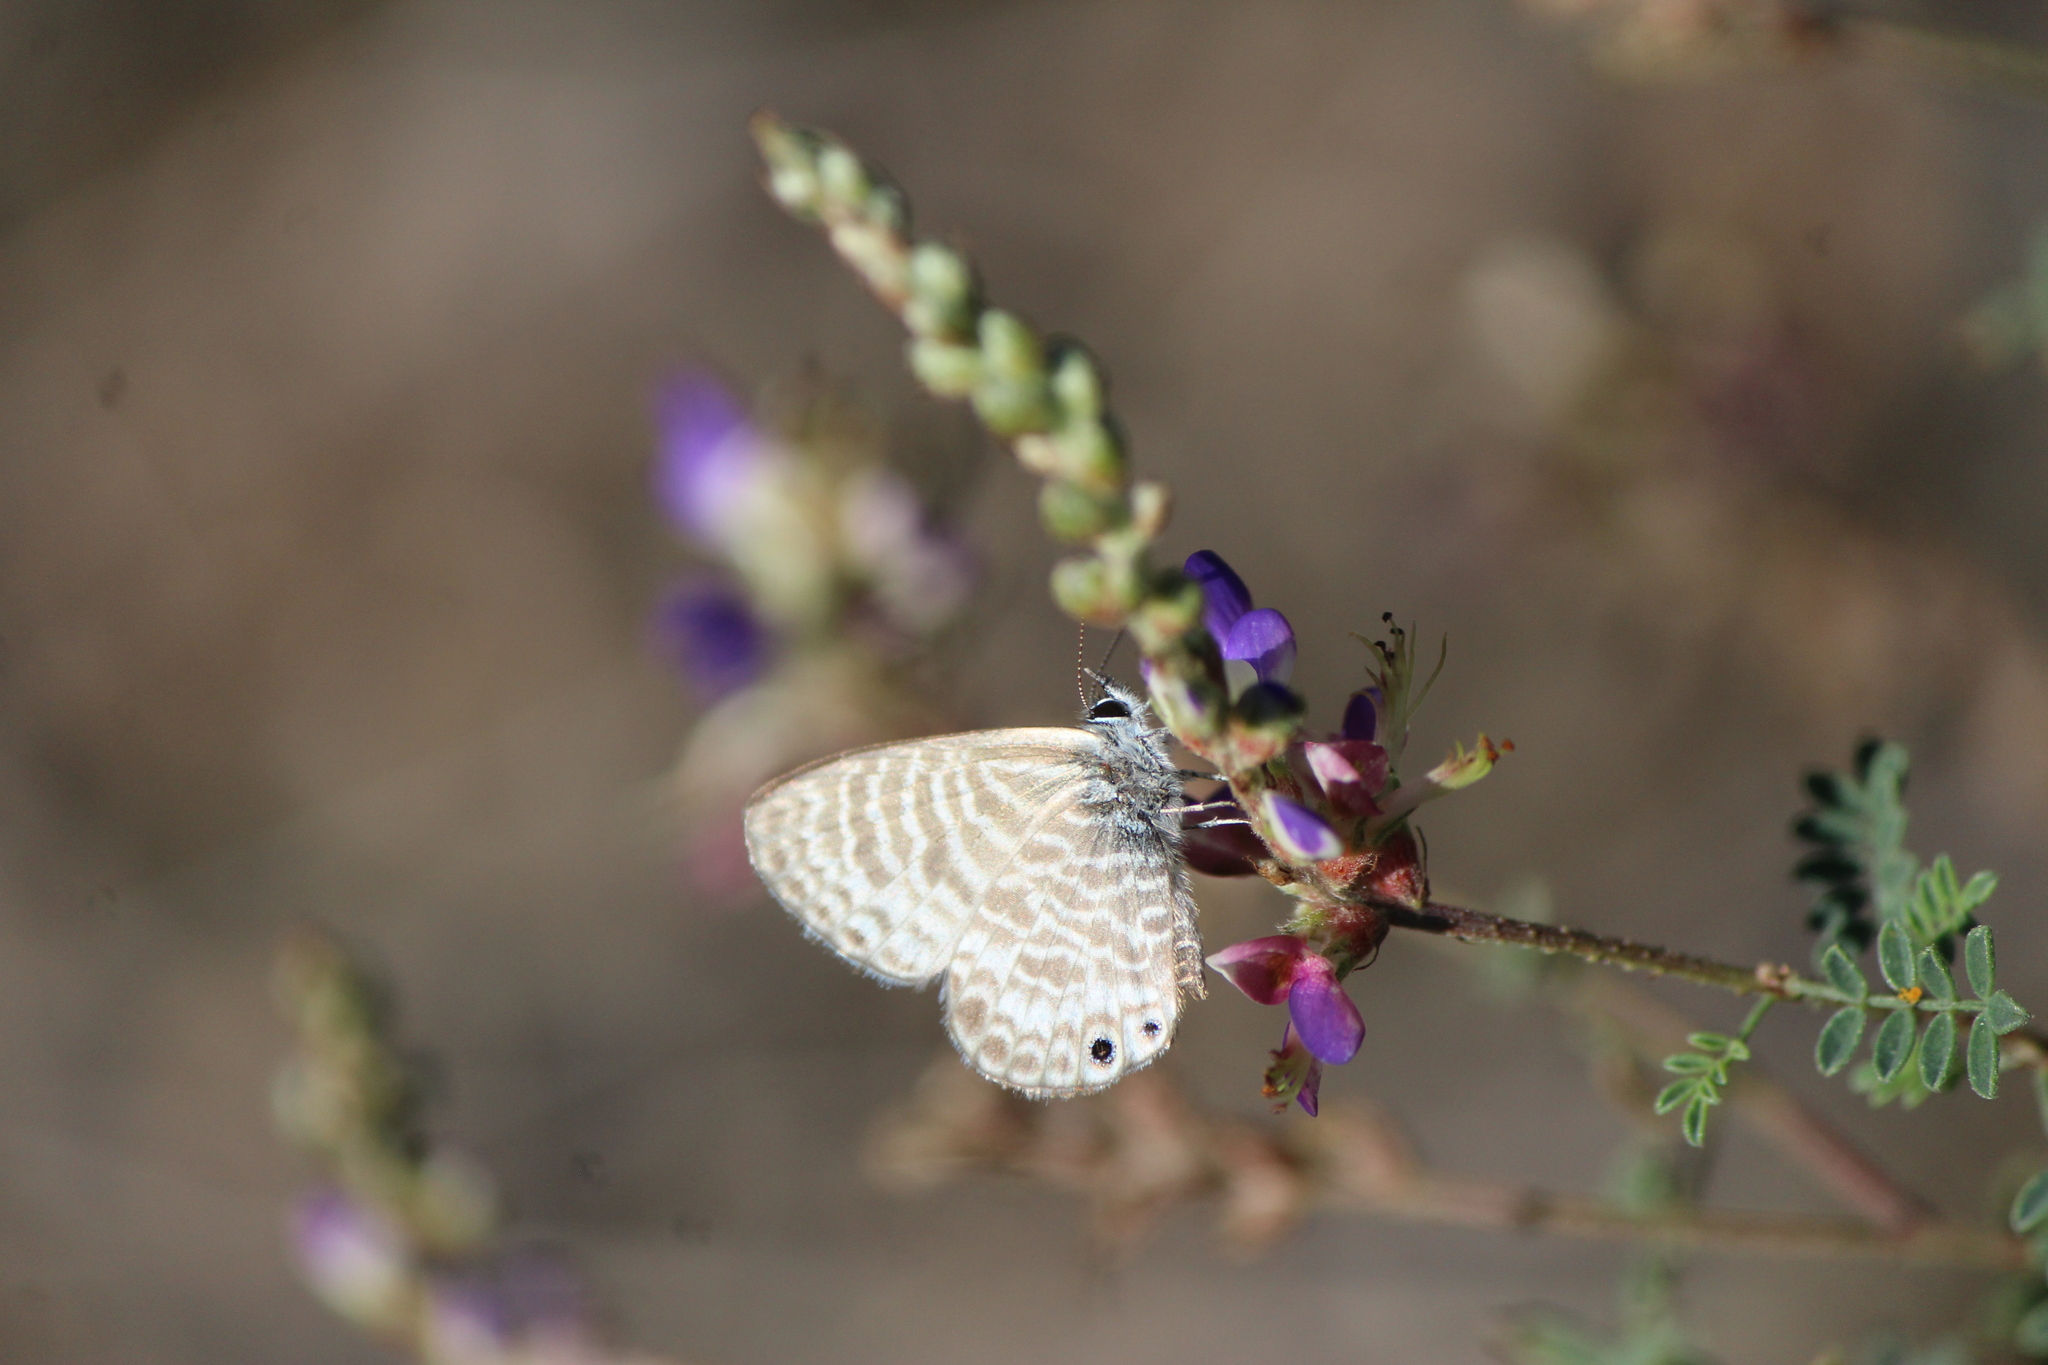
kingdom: Animalia
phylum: Arthropoda
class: Insecta
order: Lepidoptera
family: Lycaenidae
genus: Leptotes
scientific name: Leptotes marina
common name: Marine blue
